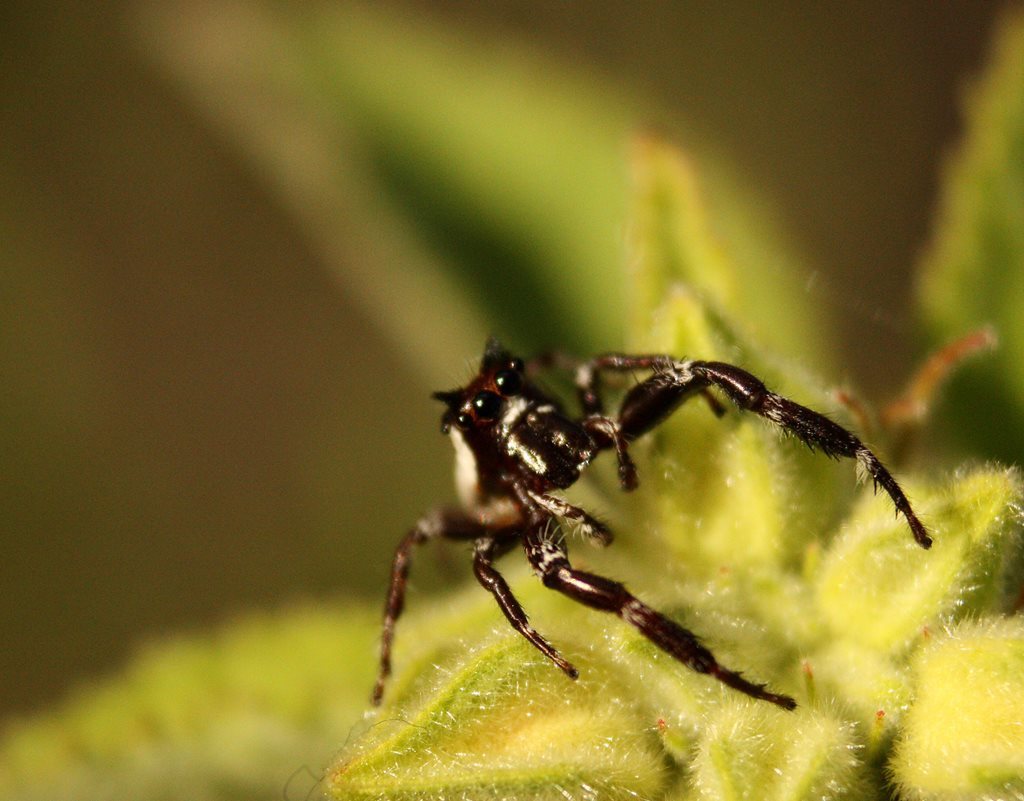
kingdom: Animalia
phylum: Arthropoda
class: Arachnida
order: Araneae
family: Salticidae
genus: Sandalodes
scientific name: Sandalodes bipenicillatus
